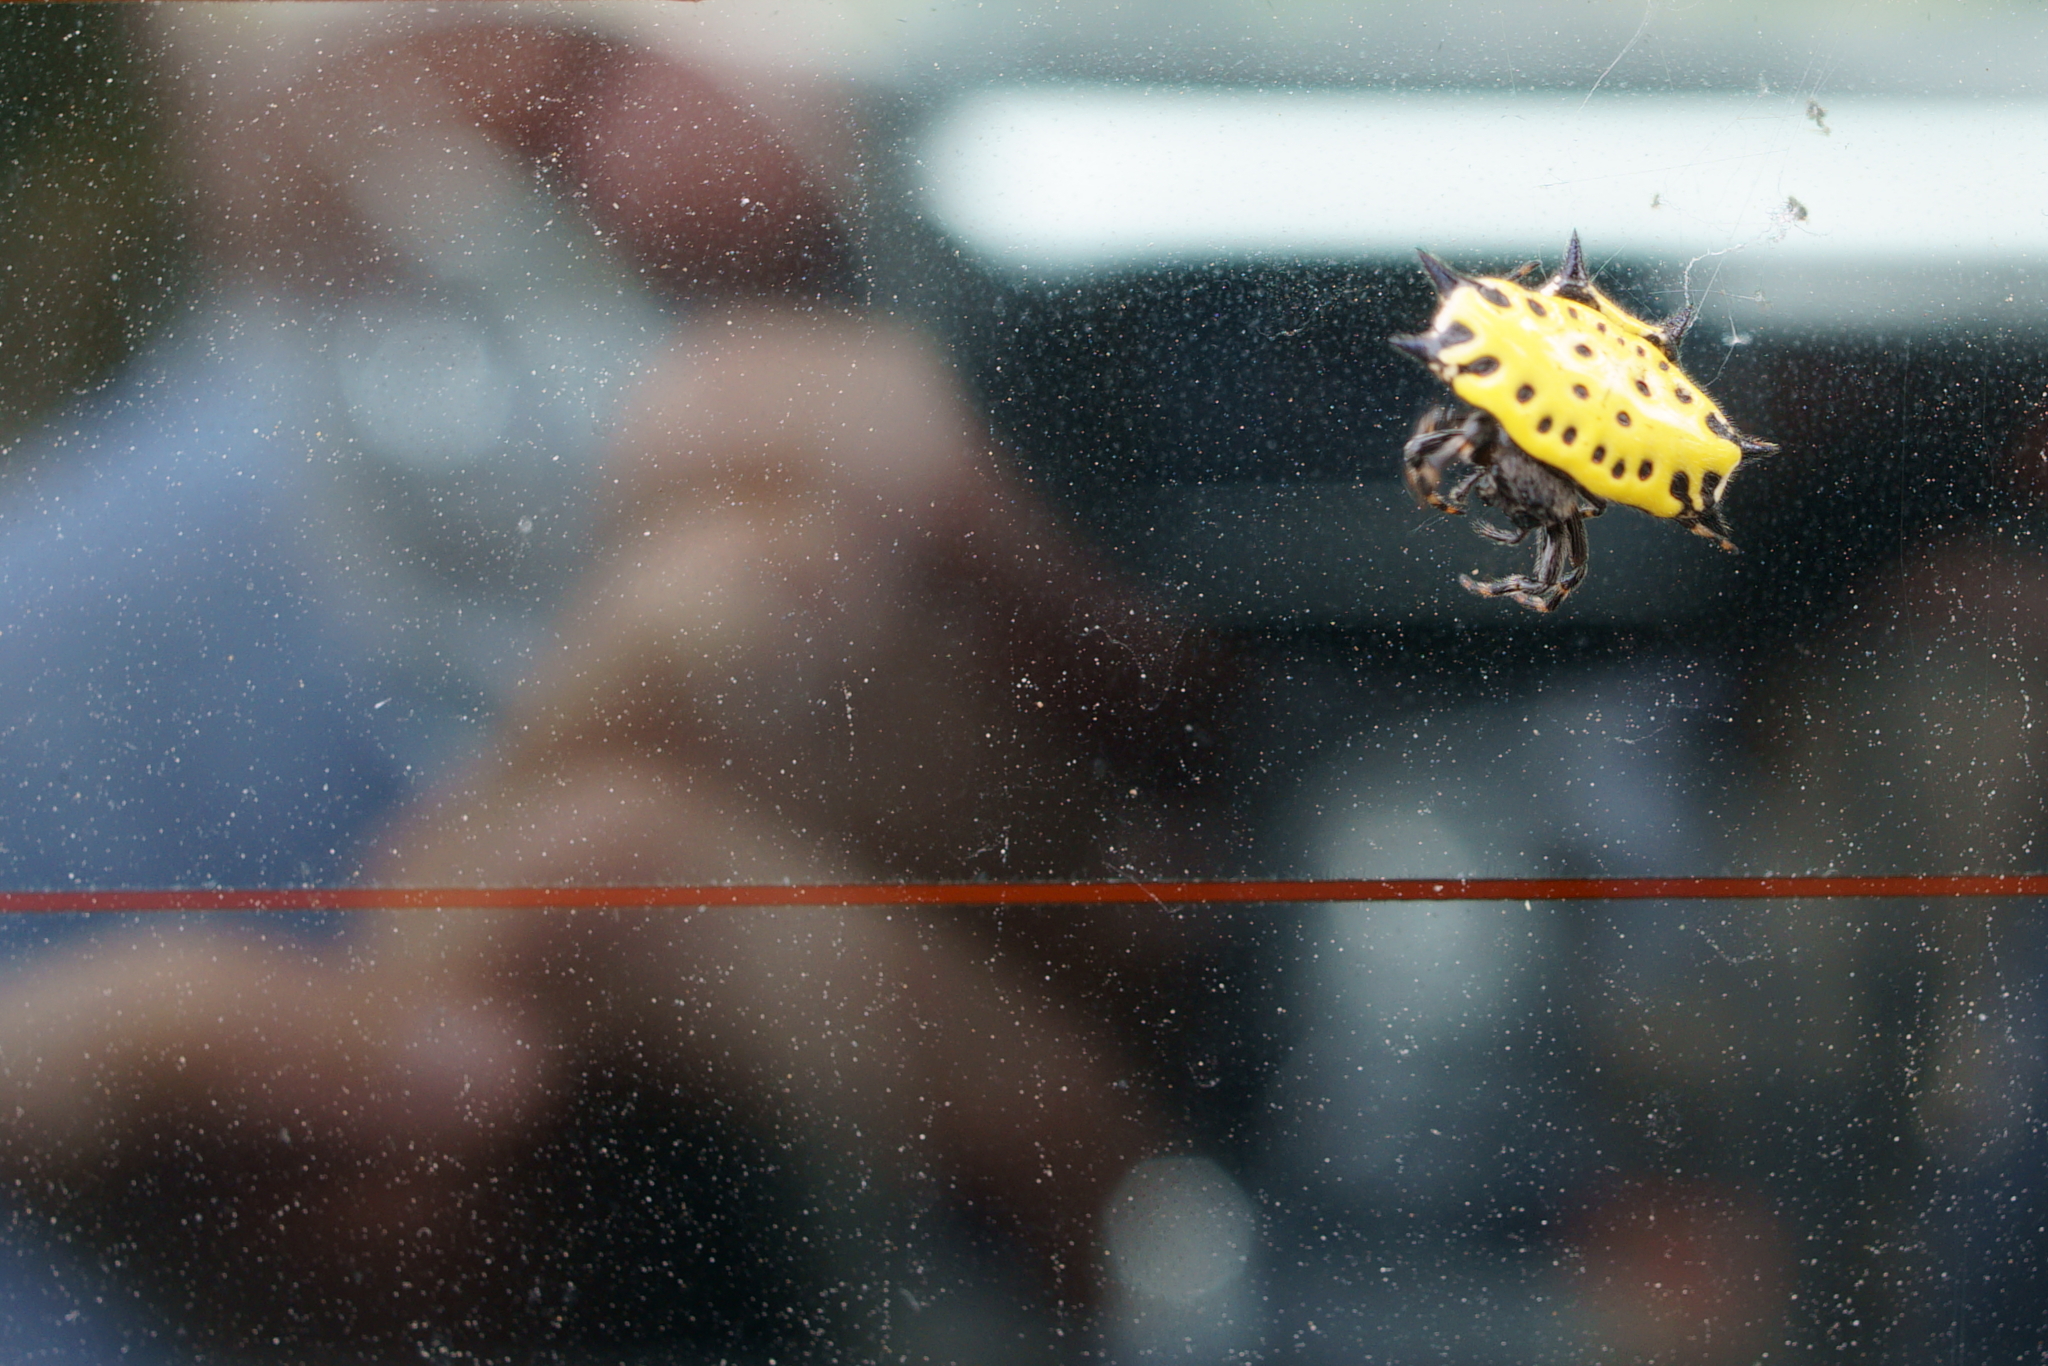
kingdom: Animalia
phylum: Arthropoda
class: Arachnida
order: Araneae
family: Araneidae
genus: Gasteracantha
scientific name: Gasteracantha cancriformis
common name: Orb weavers
